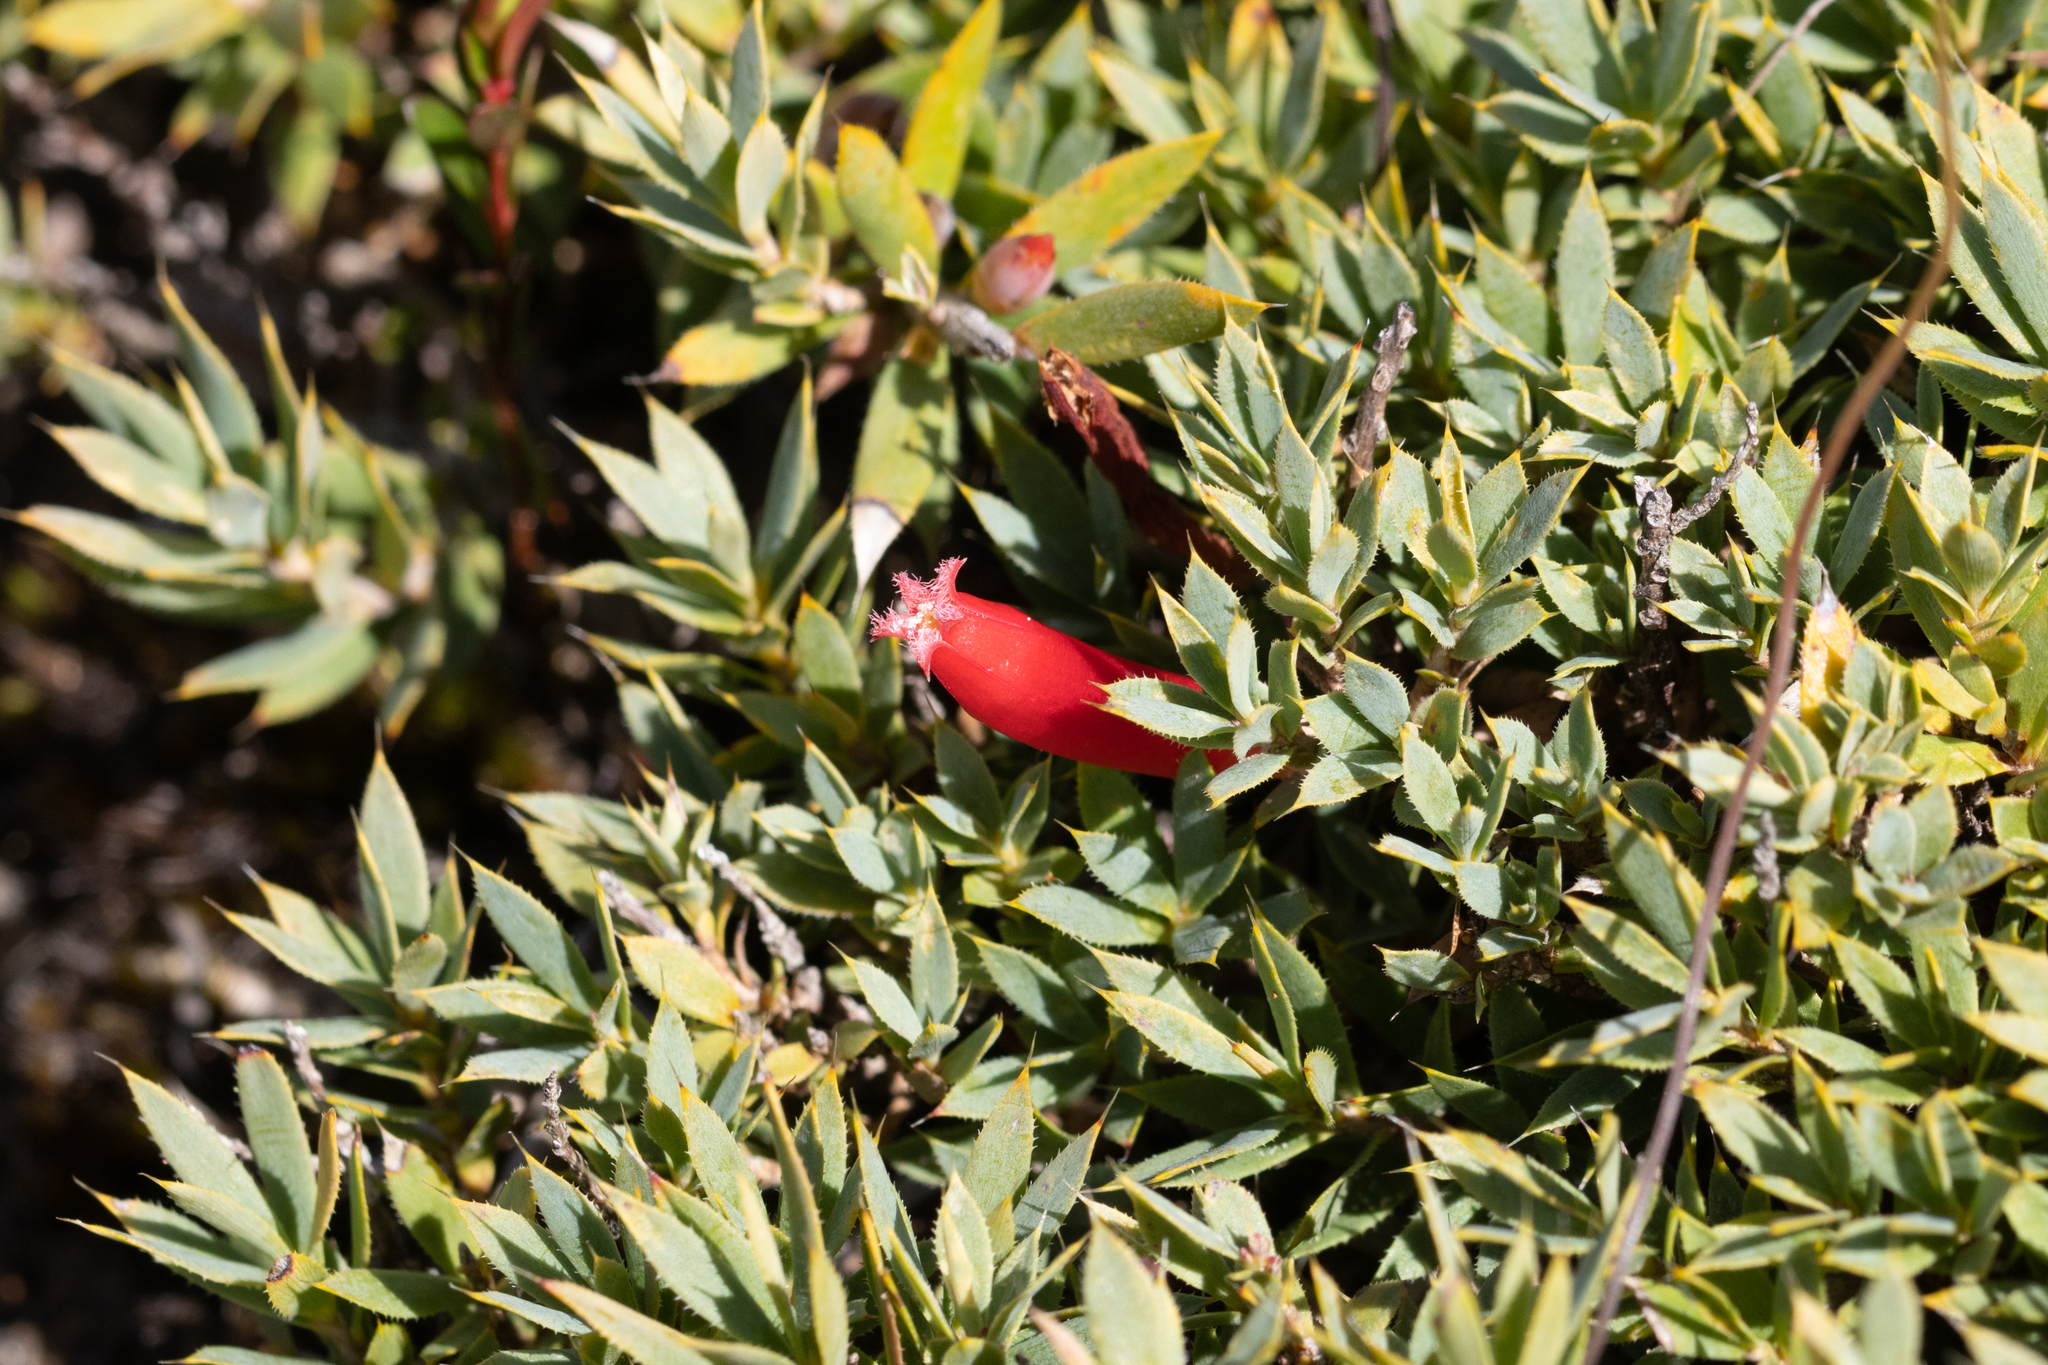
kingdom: Plantae
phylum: Tracheophyta
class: Magnoliopsida
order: Ericales
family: Ericaceae
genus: Styphelia
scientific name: Styphelia humifusa
